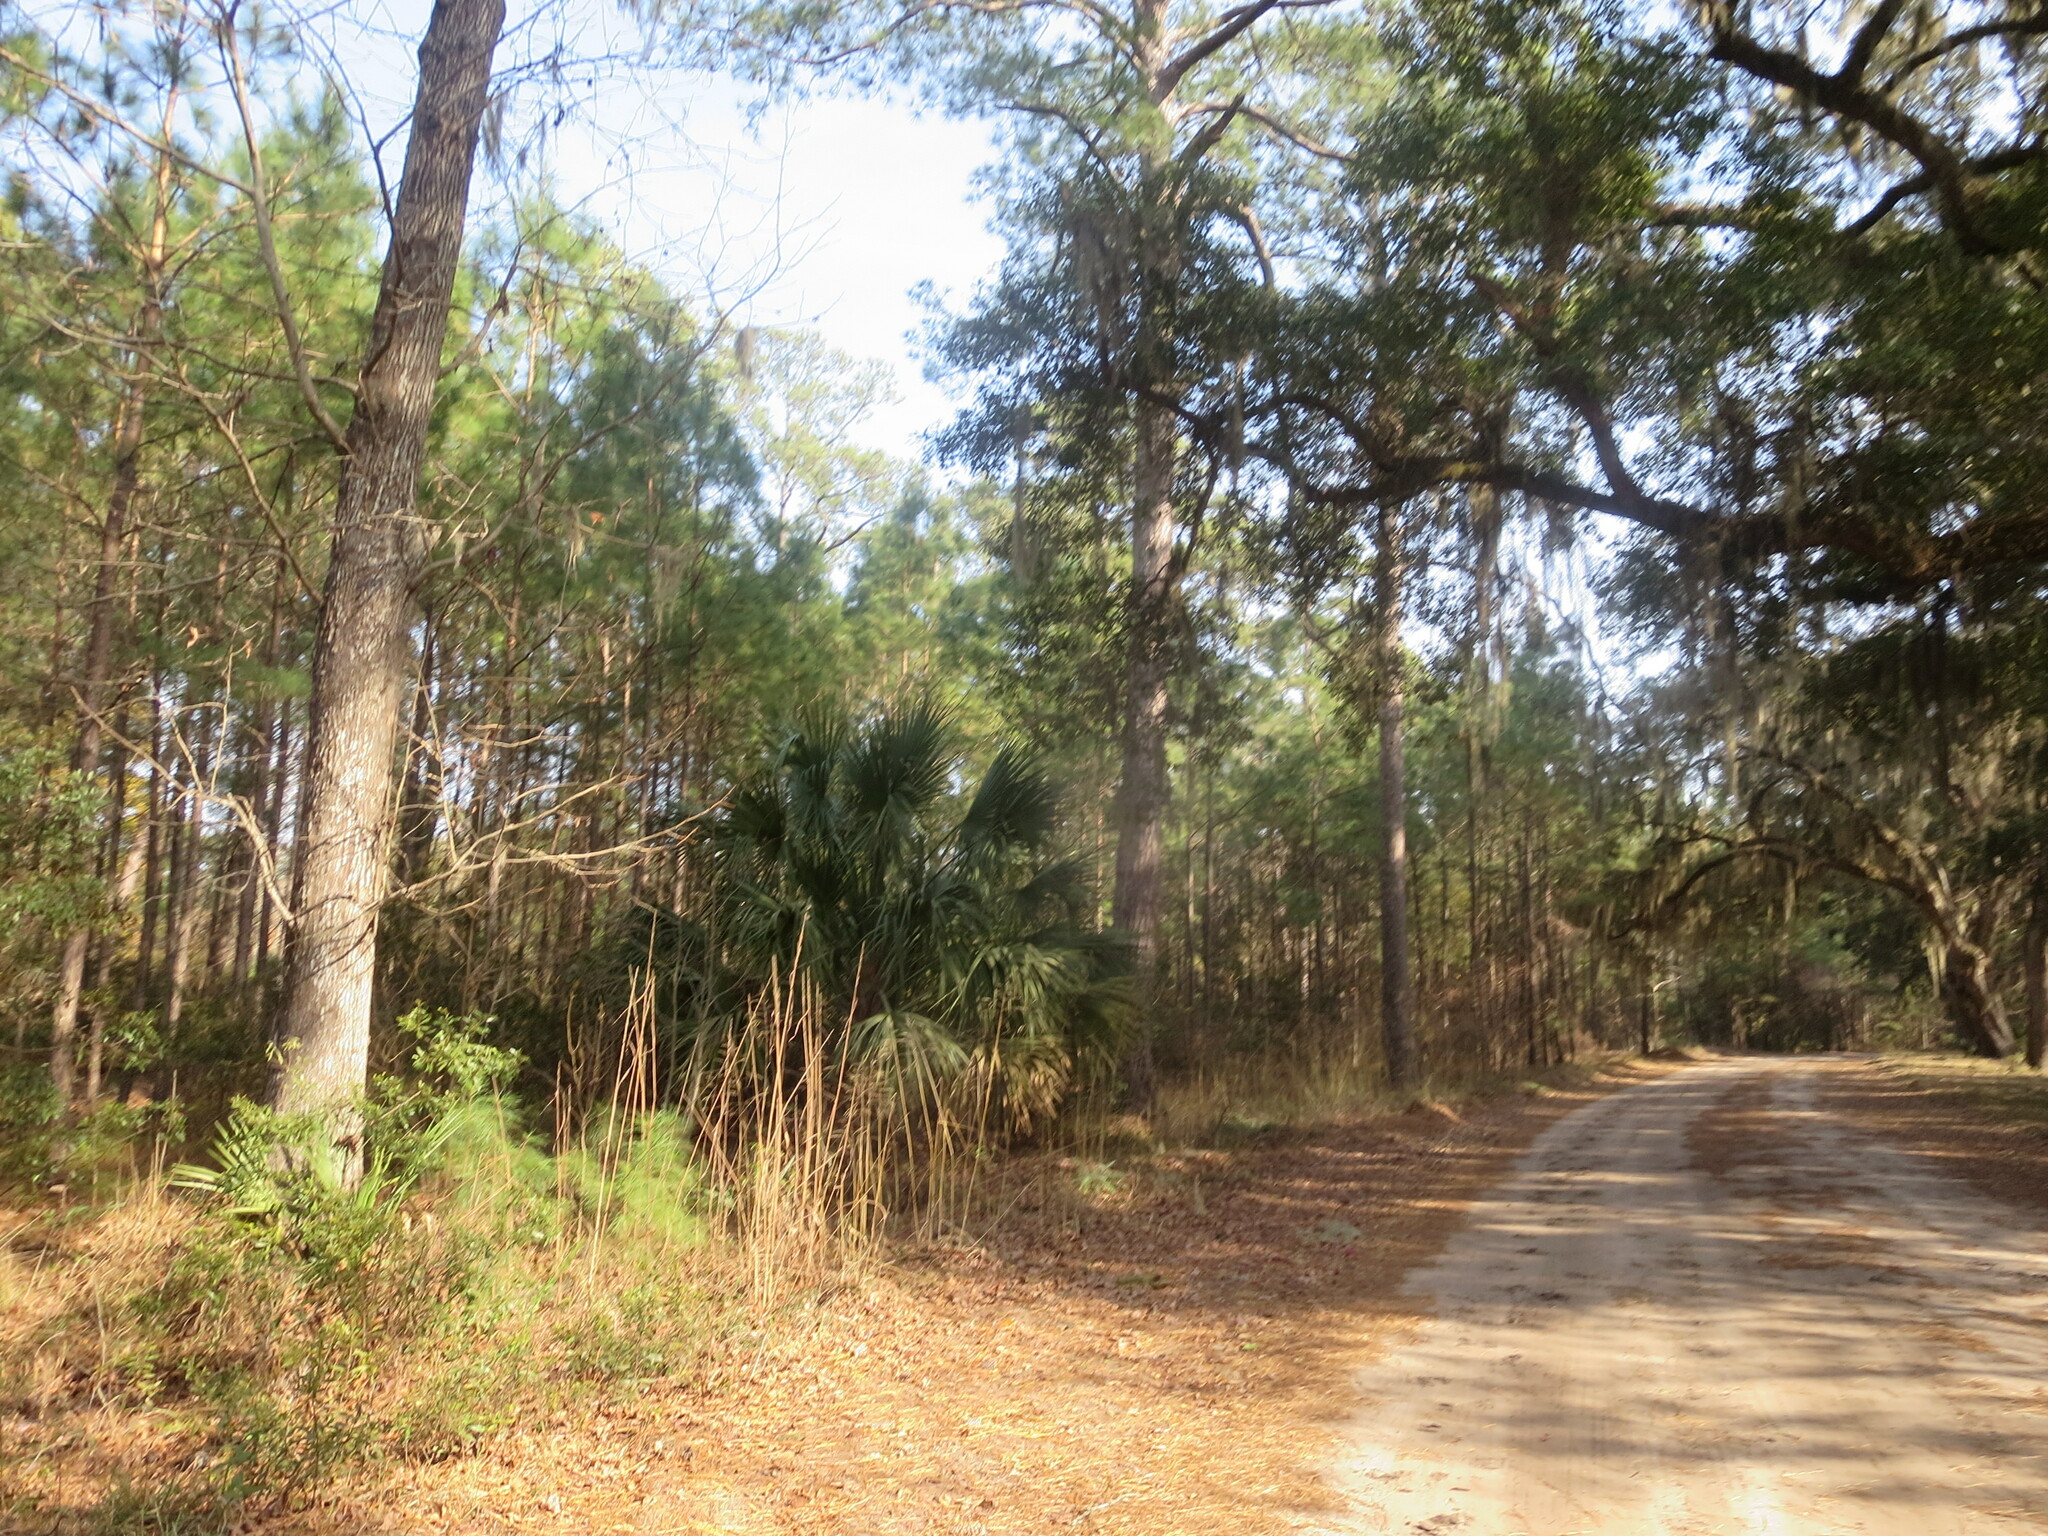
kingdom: Plantae
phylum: Tracheophyta
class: Magnoliopsida
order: Fagales
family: Fagaceae
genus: Quercus
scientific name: Quercus virginiana
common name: Southern live oak
